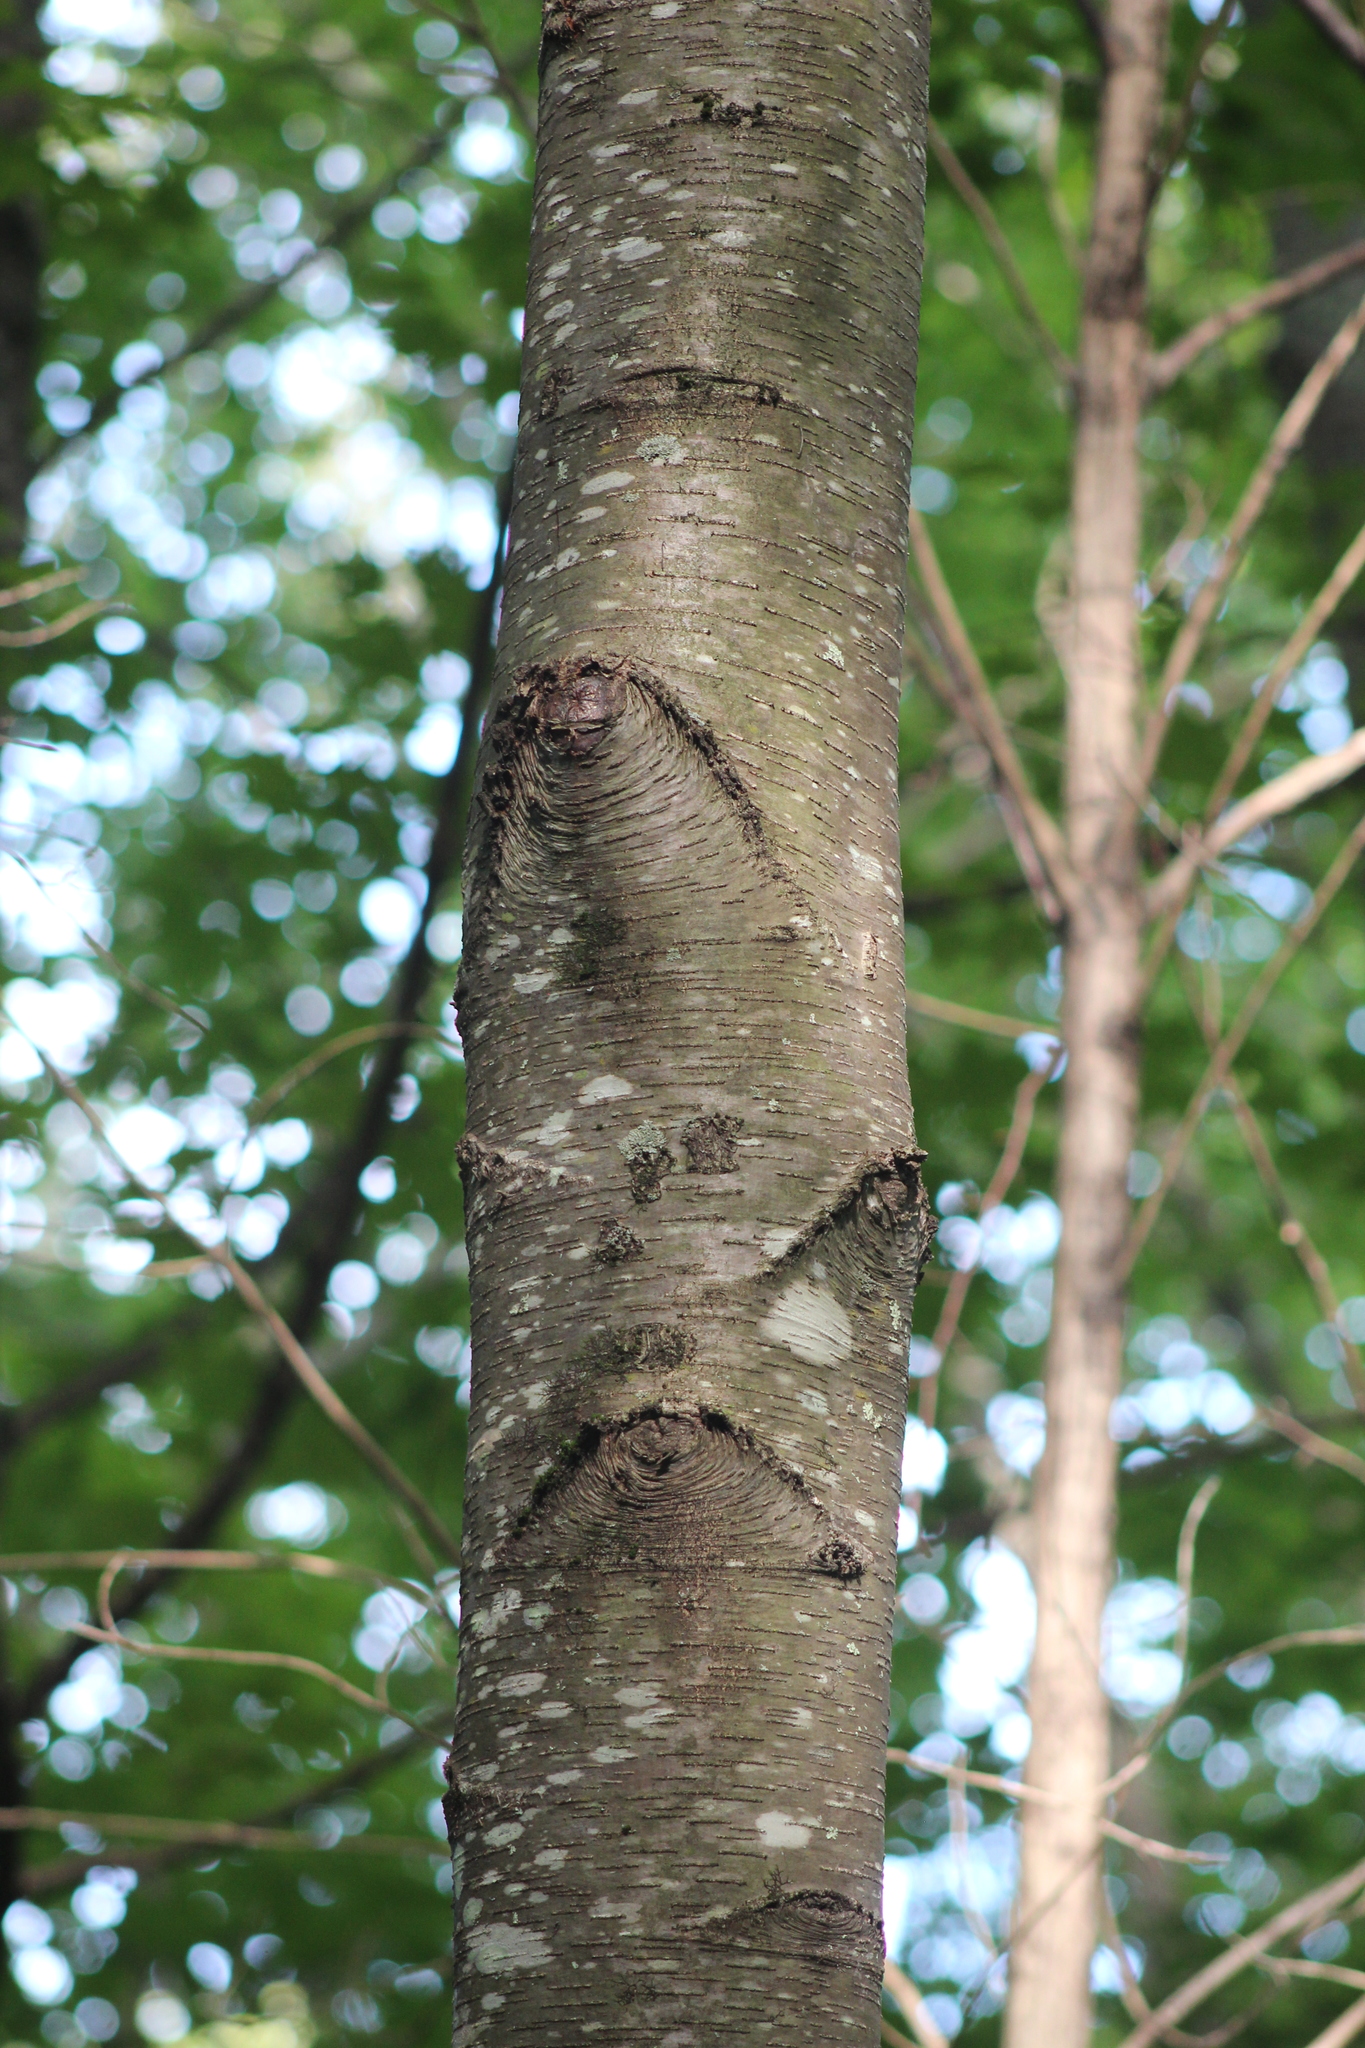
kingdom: Plantae
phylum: Tracheophyta
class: Magnoliopsida
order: Fagales
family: Betulaceae
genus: Betula
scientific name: Betula lenta
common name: Black birch
